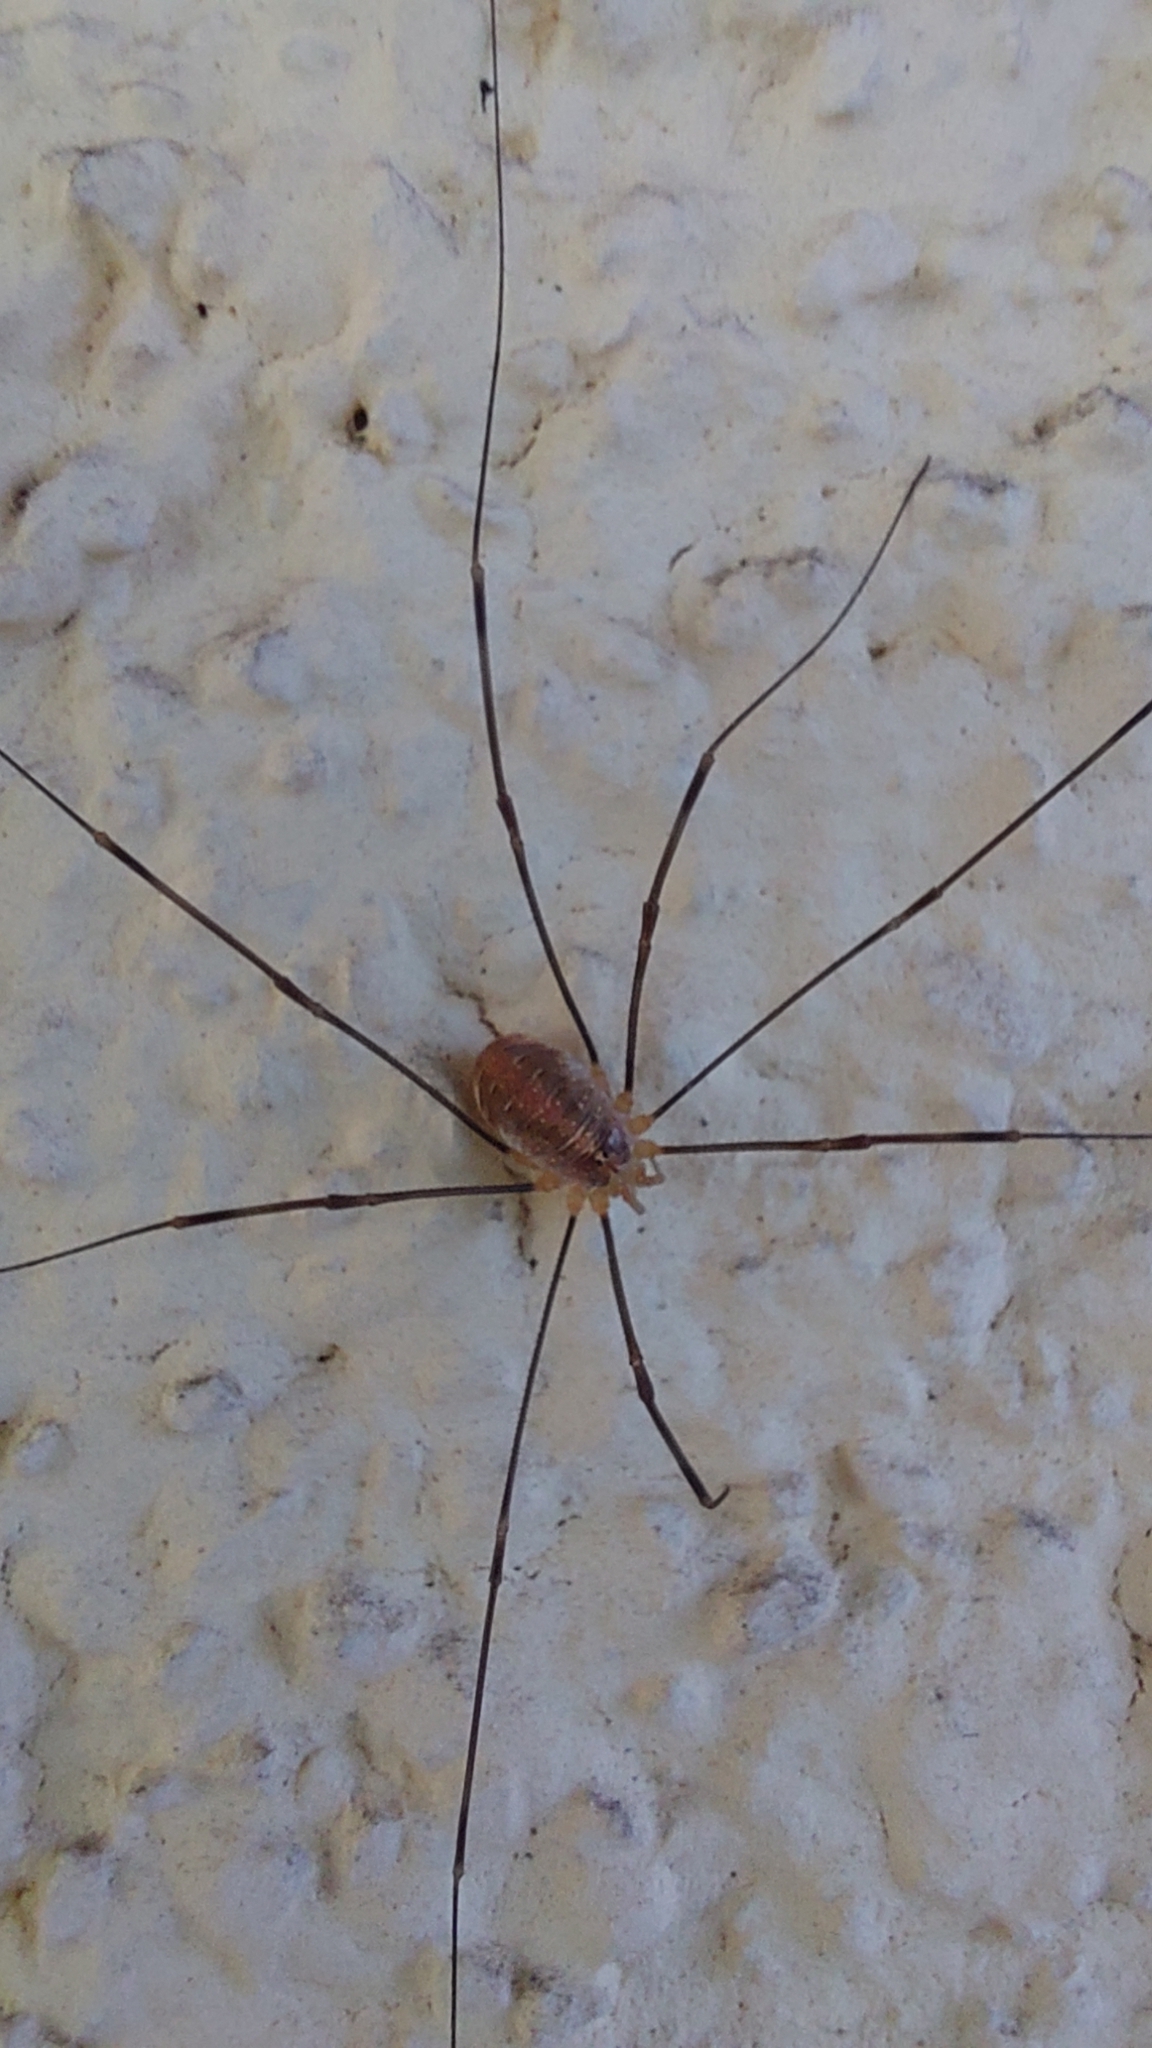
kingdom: Animalia
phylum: Arthropoda
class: Arachnida
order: Opiliones
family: Phalangiidae
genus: Opilio
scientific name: Opilio canestrinii
